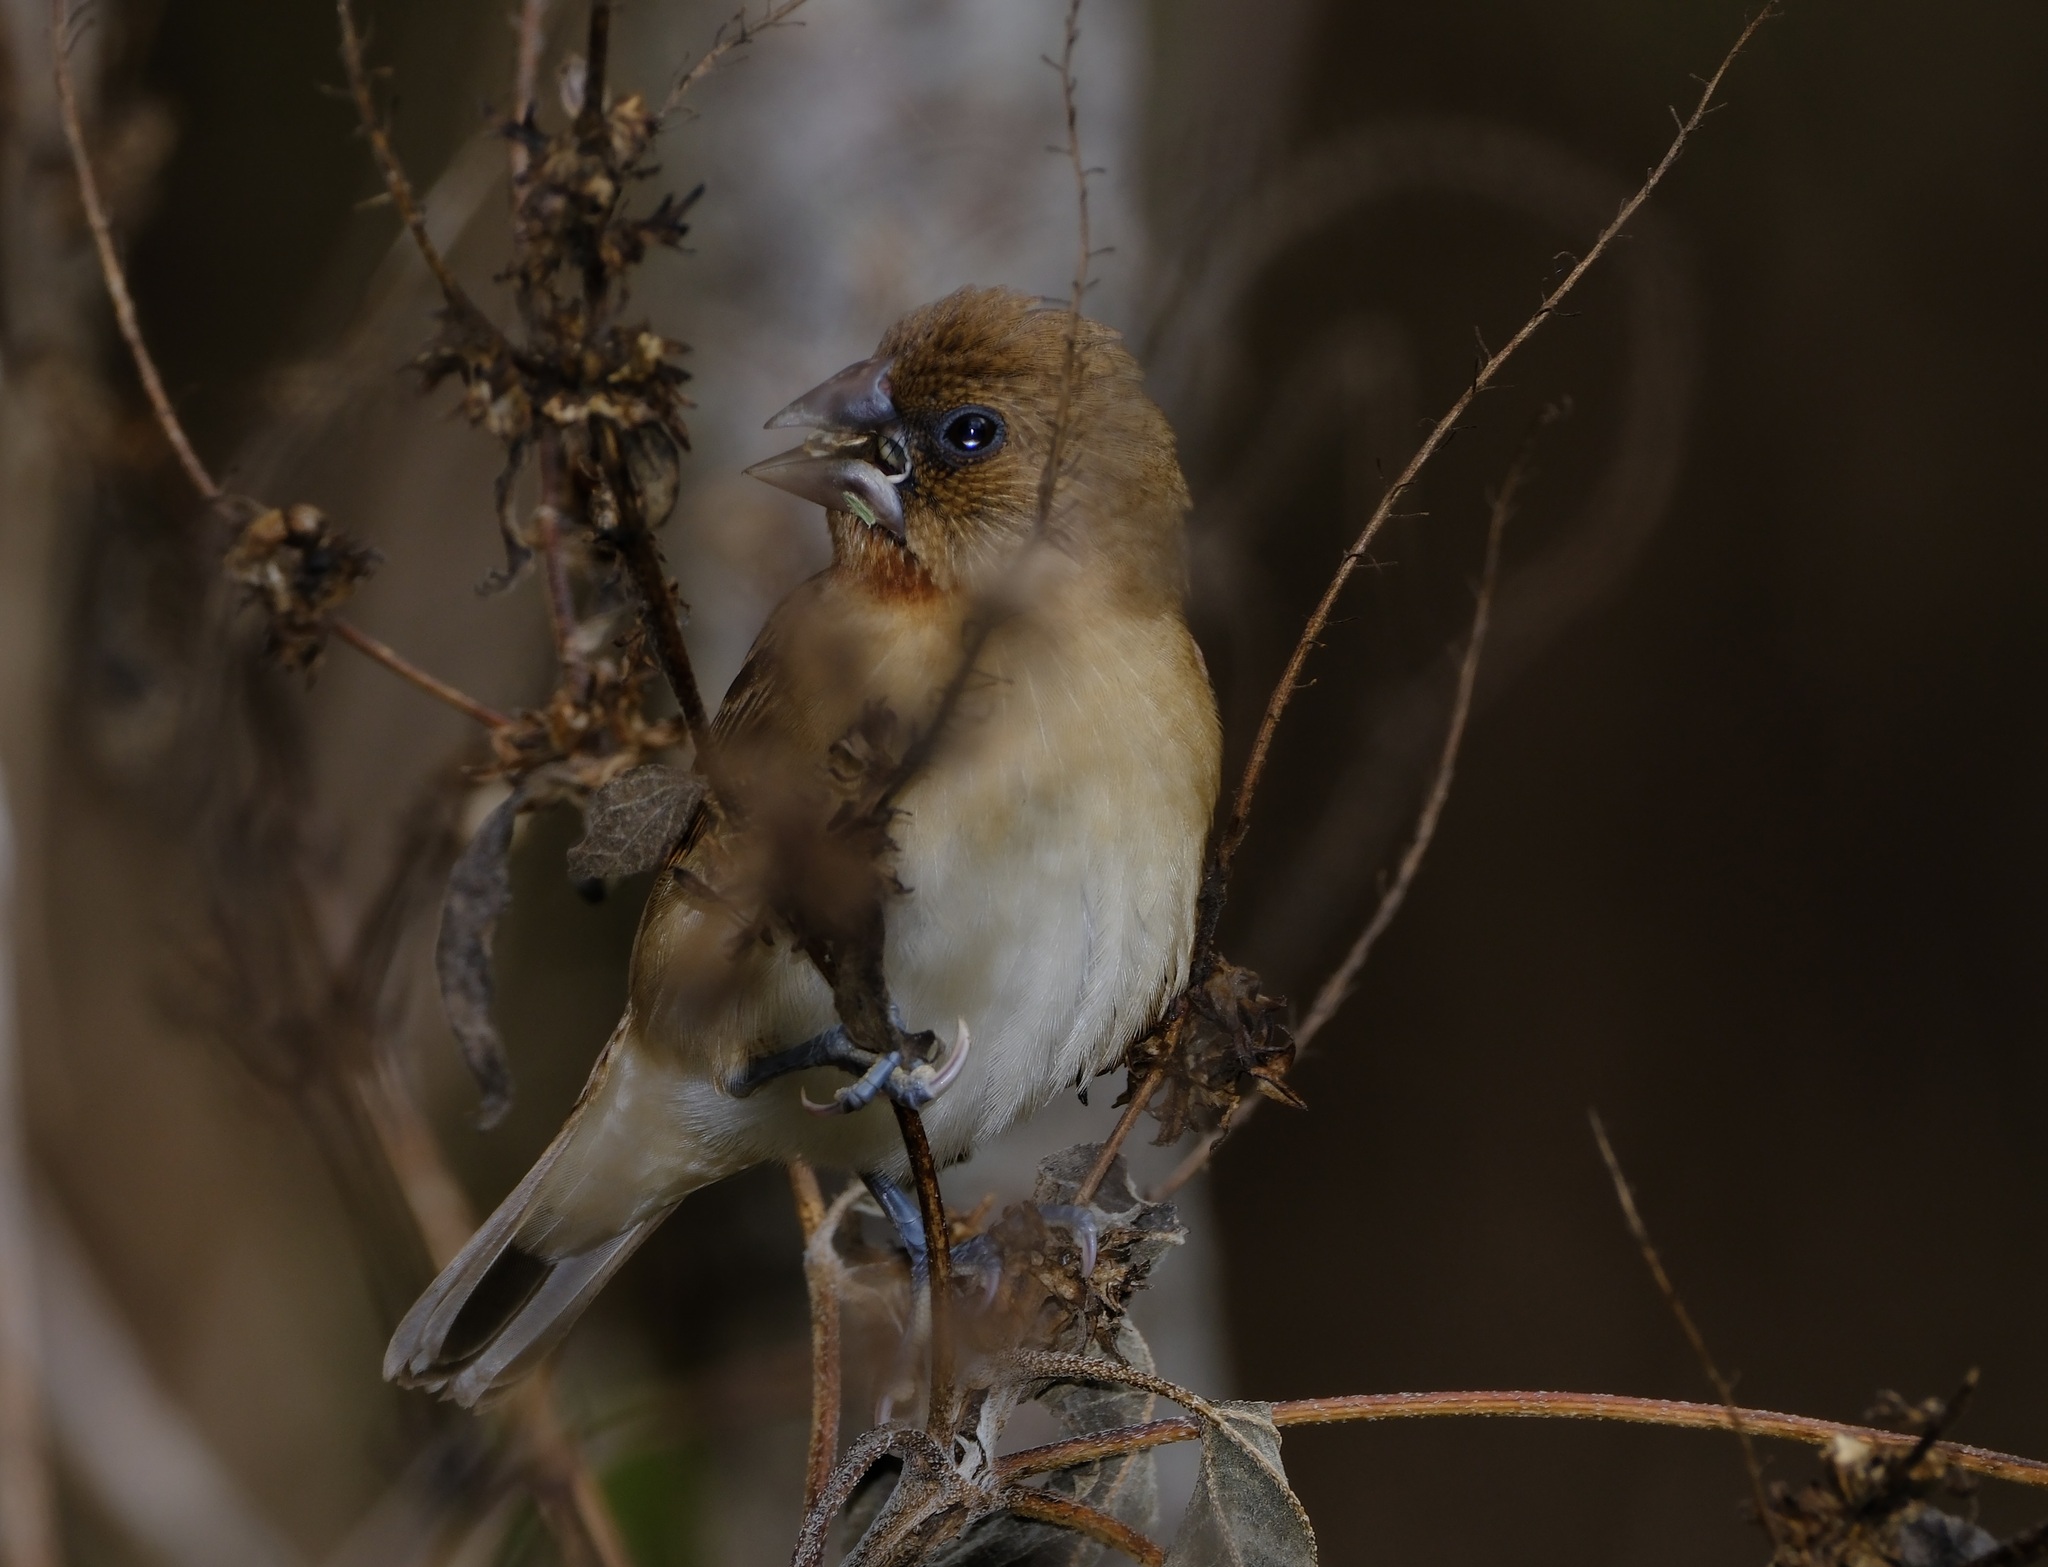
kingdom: Animalia
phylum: Chordata
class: Aves
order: Passeriformes
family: Estrildidae
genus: Lonchura
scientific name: Lonchura punctulata
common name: Scaly-breasted munia
